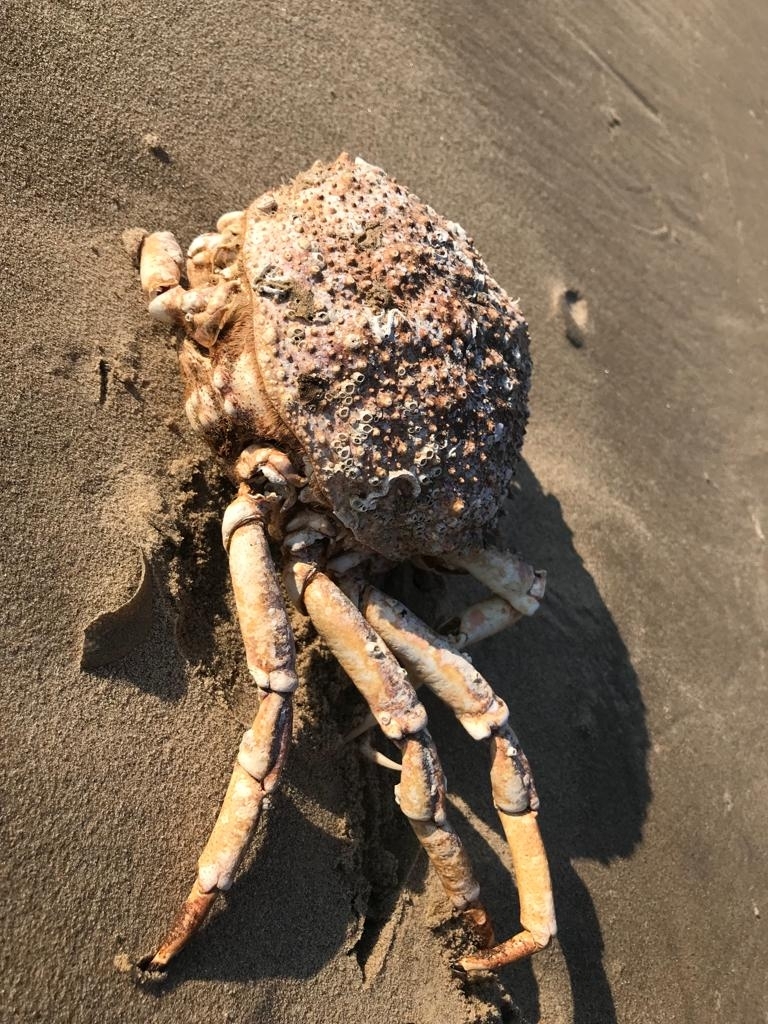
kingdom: Animalia
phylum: Arthropoda
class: Malacostraca
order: Decapoda
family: Majidae
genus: Maja
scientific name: Maja brachydactyla
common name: Common spider crab
